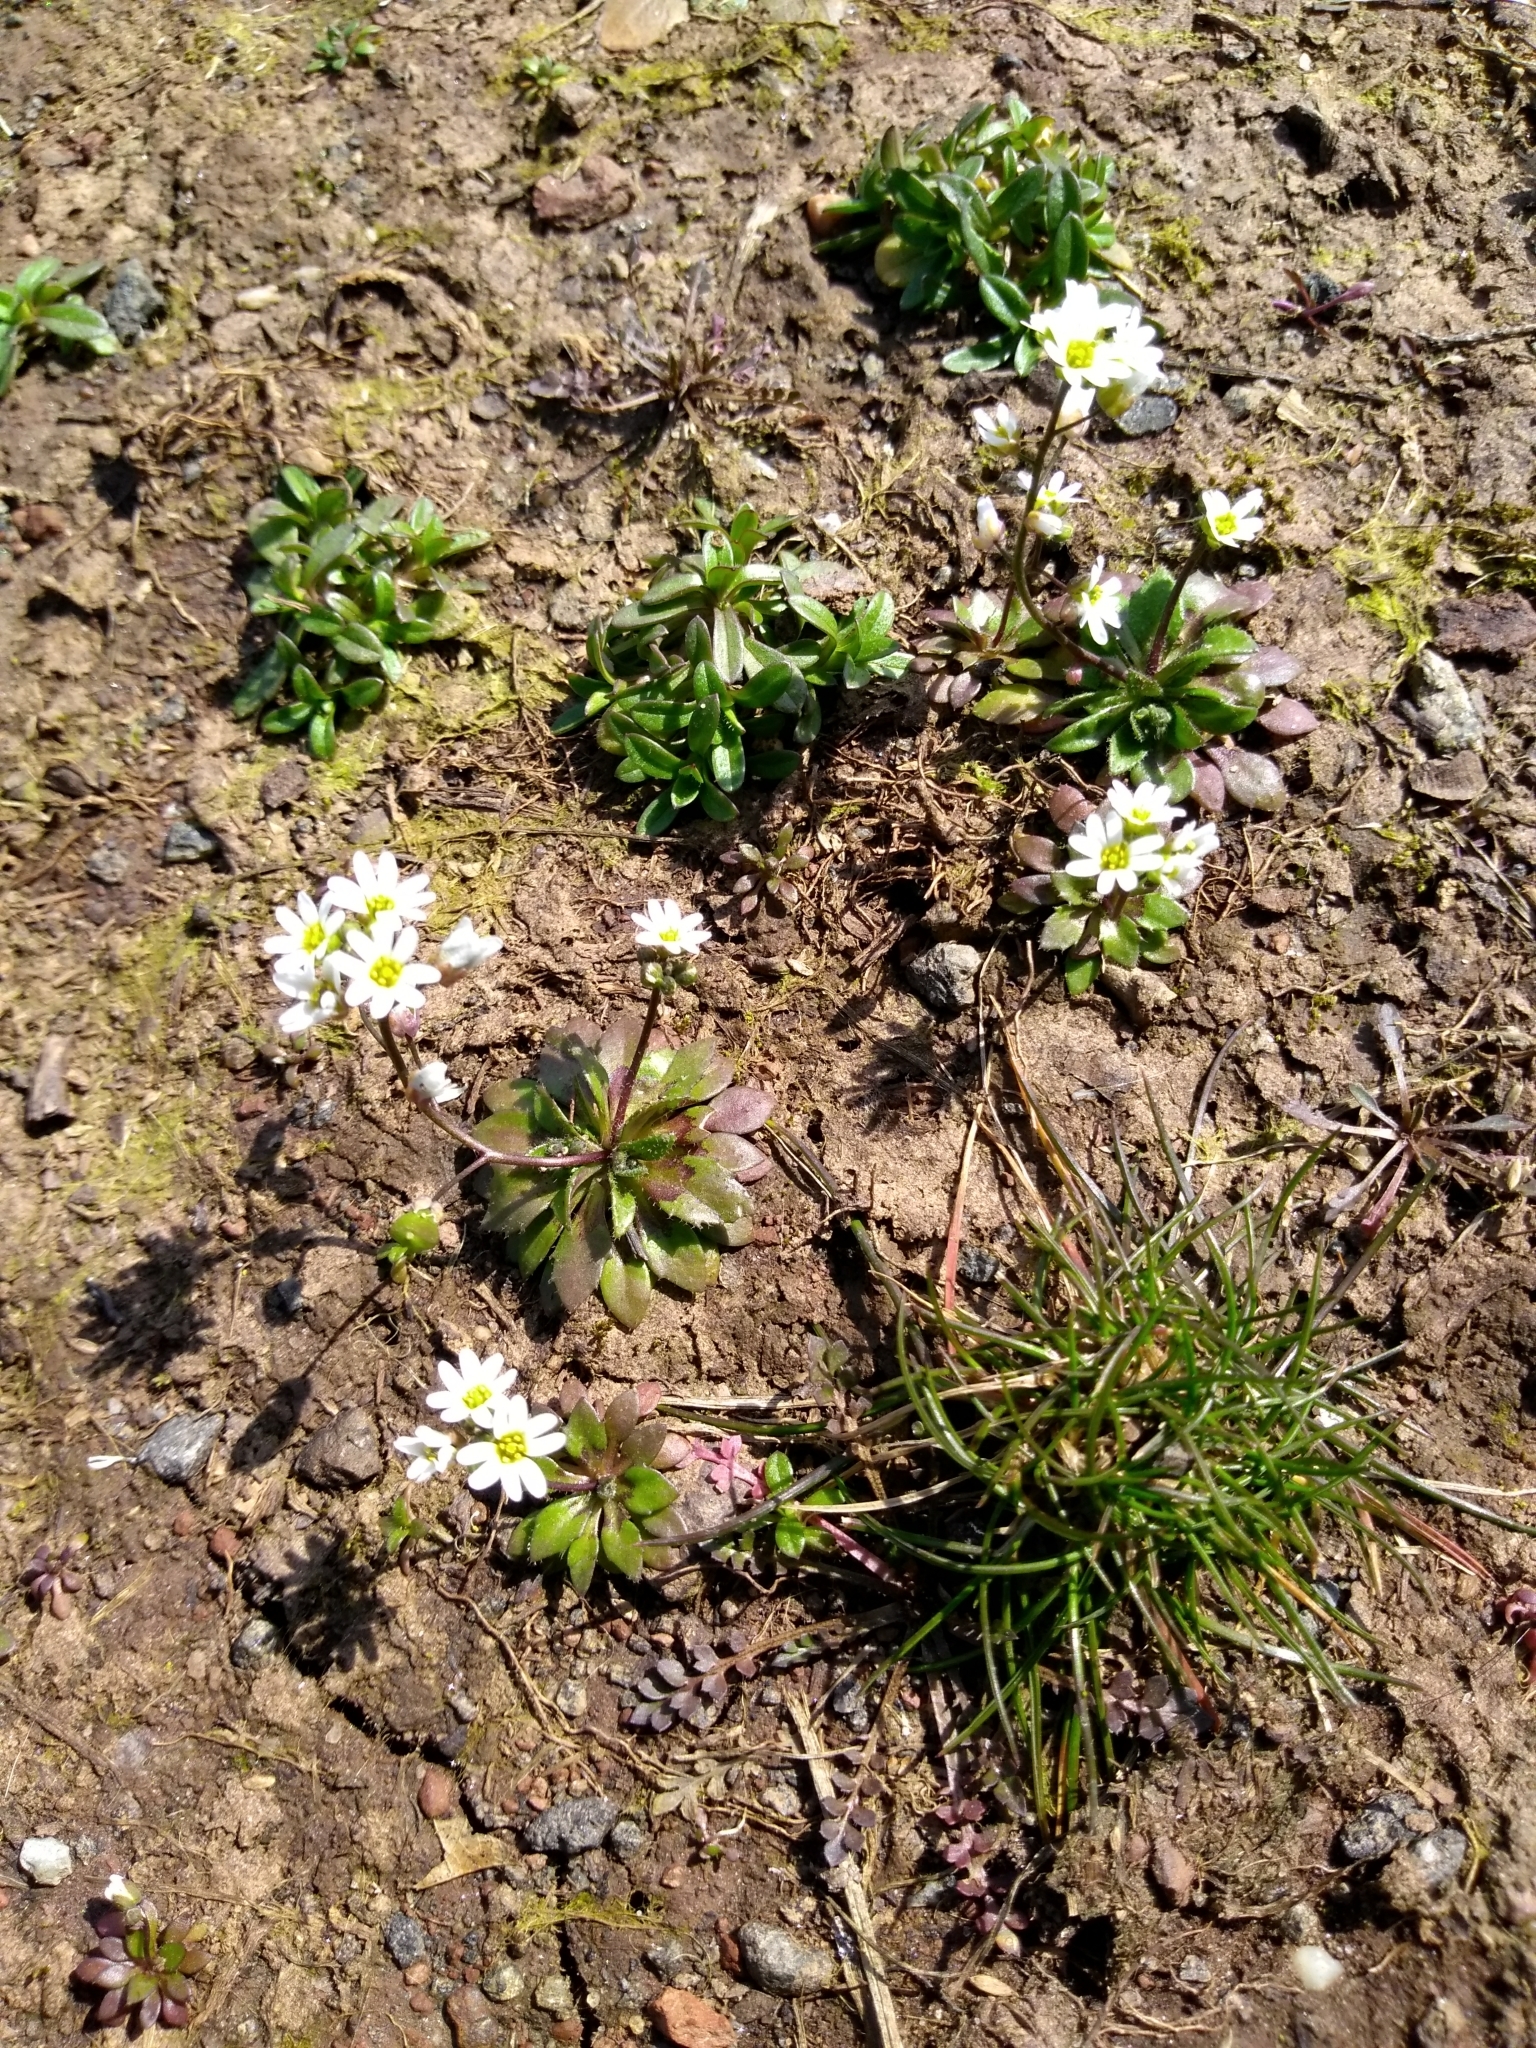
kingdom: Plantae
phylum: Tracheophyta
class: Magnoliopsida
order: Brassicales
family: Brassicaceae
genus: Draba
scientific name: Draba verna
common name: Spring draba
